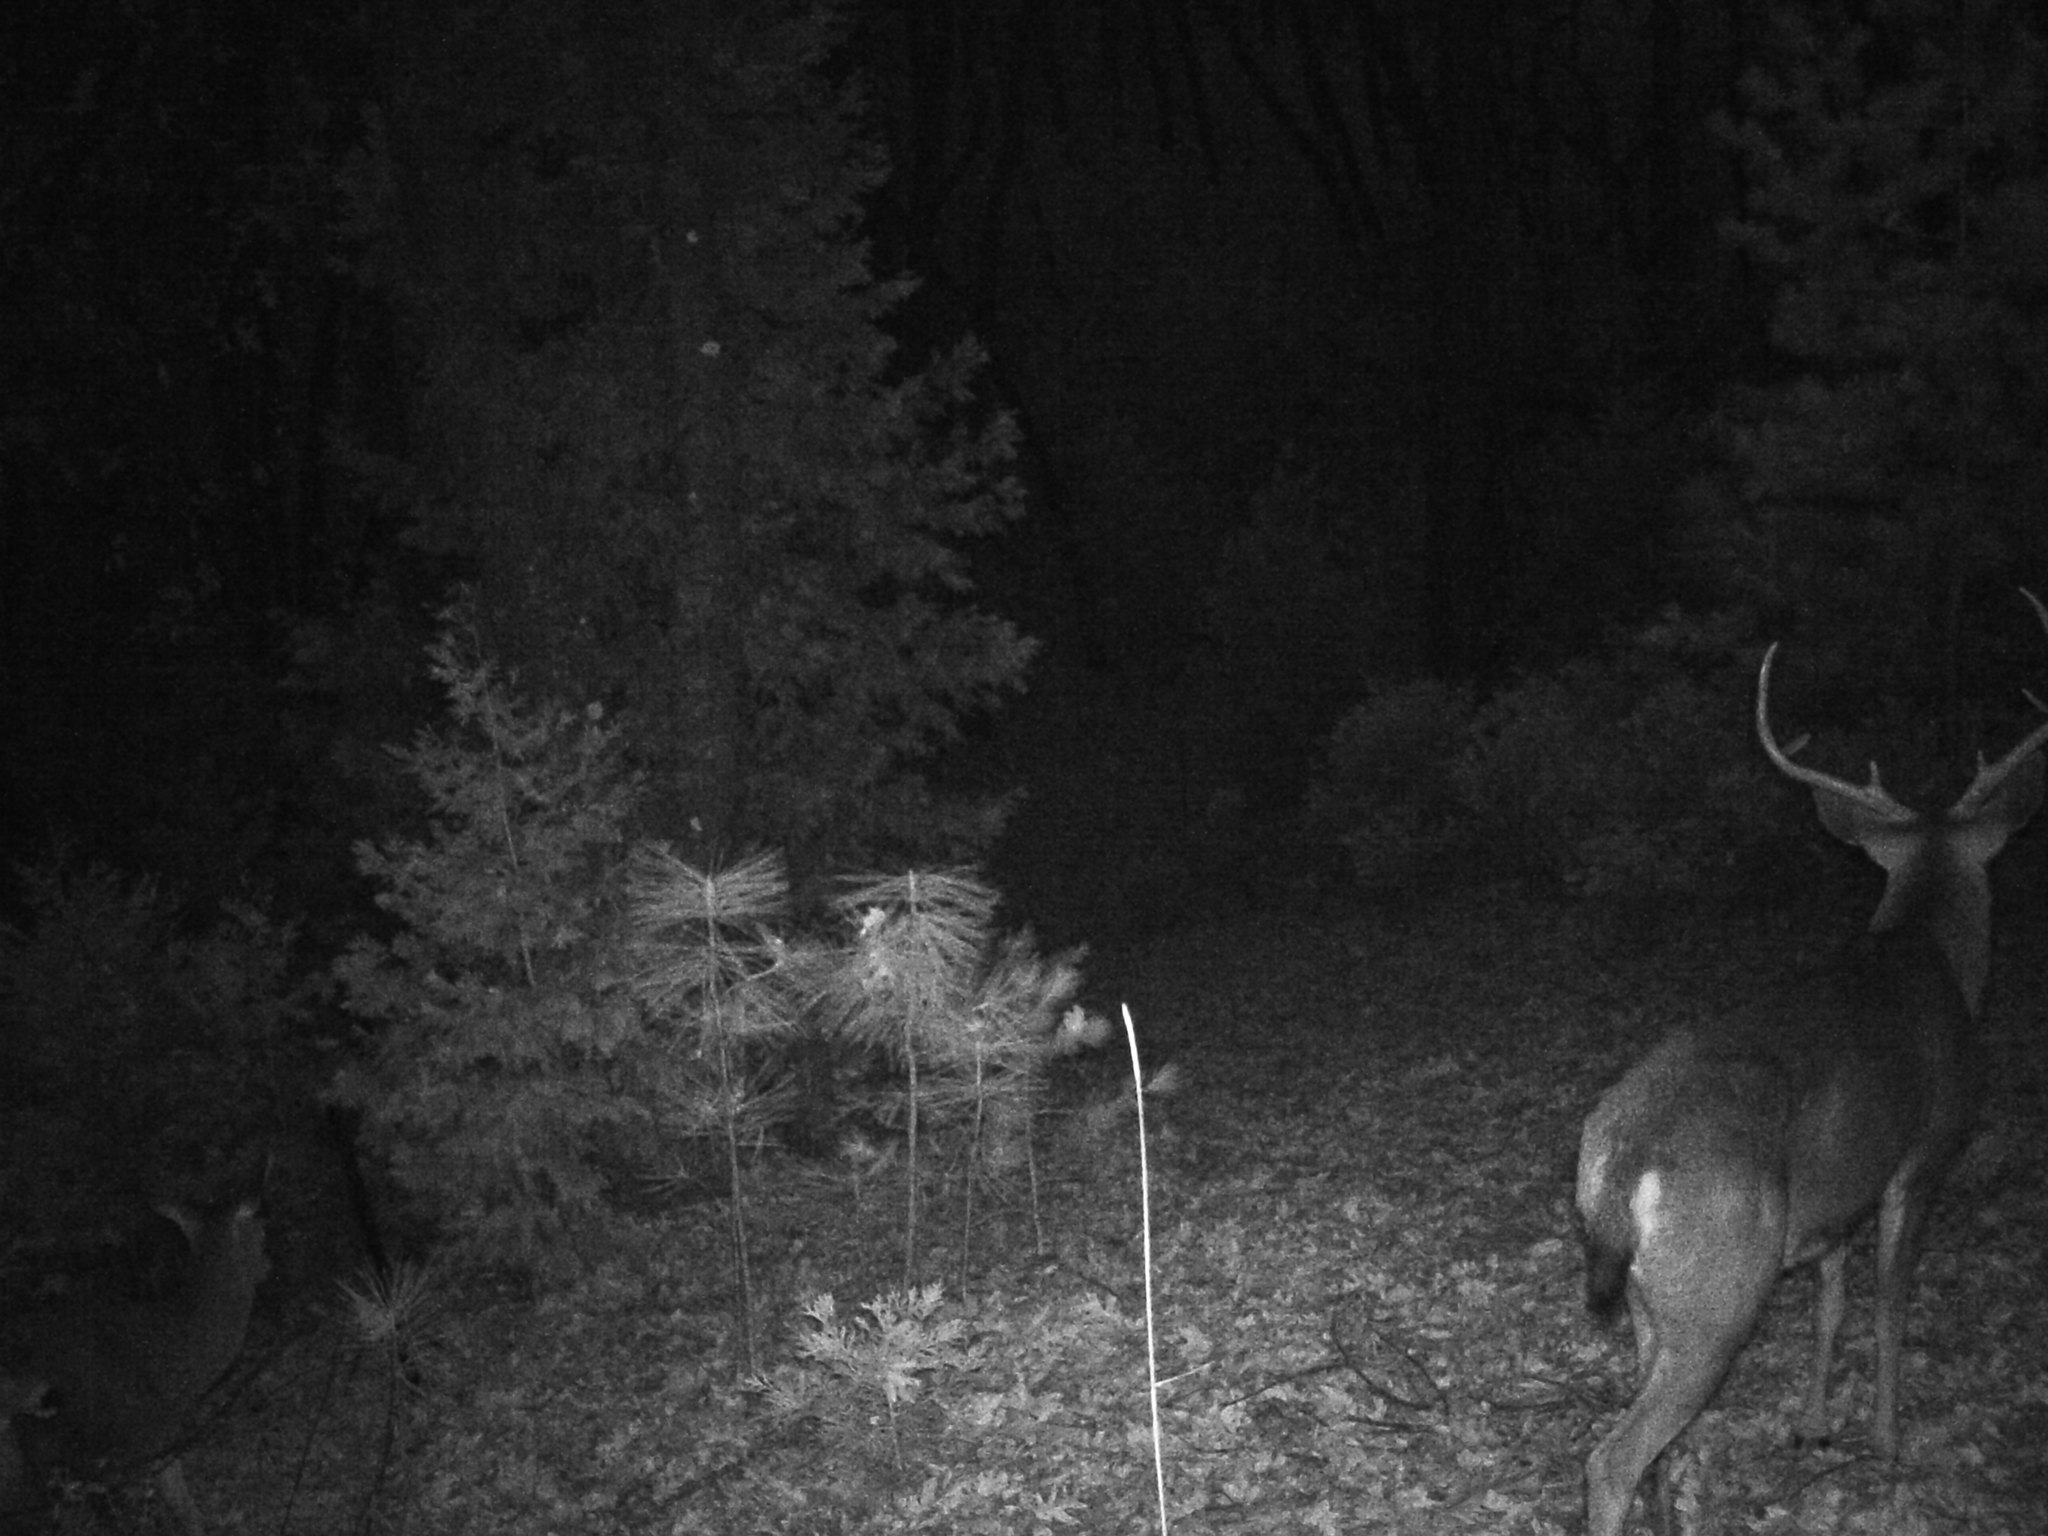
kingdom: Animalia
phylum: Chordata
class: Mammalia
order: Artiodactyla
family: Cervidae
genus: Odocoileus
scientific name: Odocoileus hemionus
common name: Mule deer
